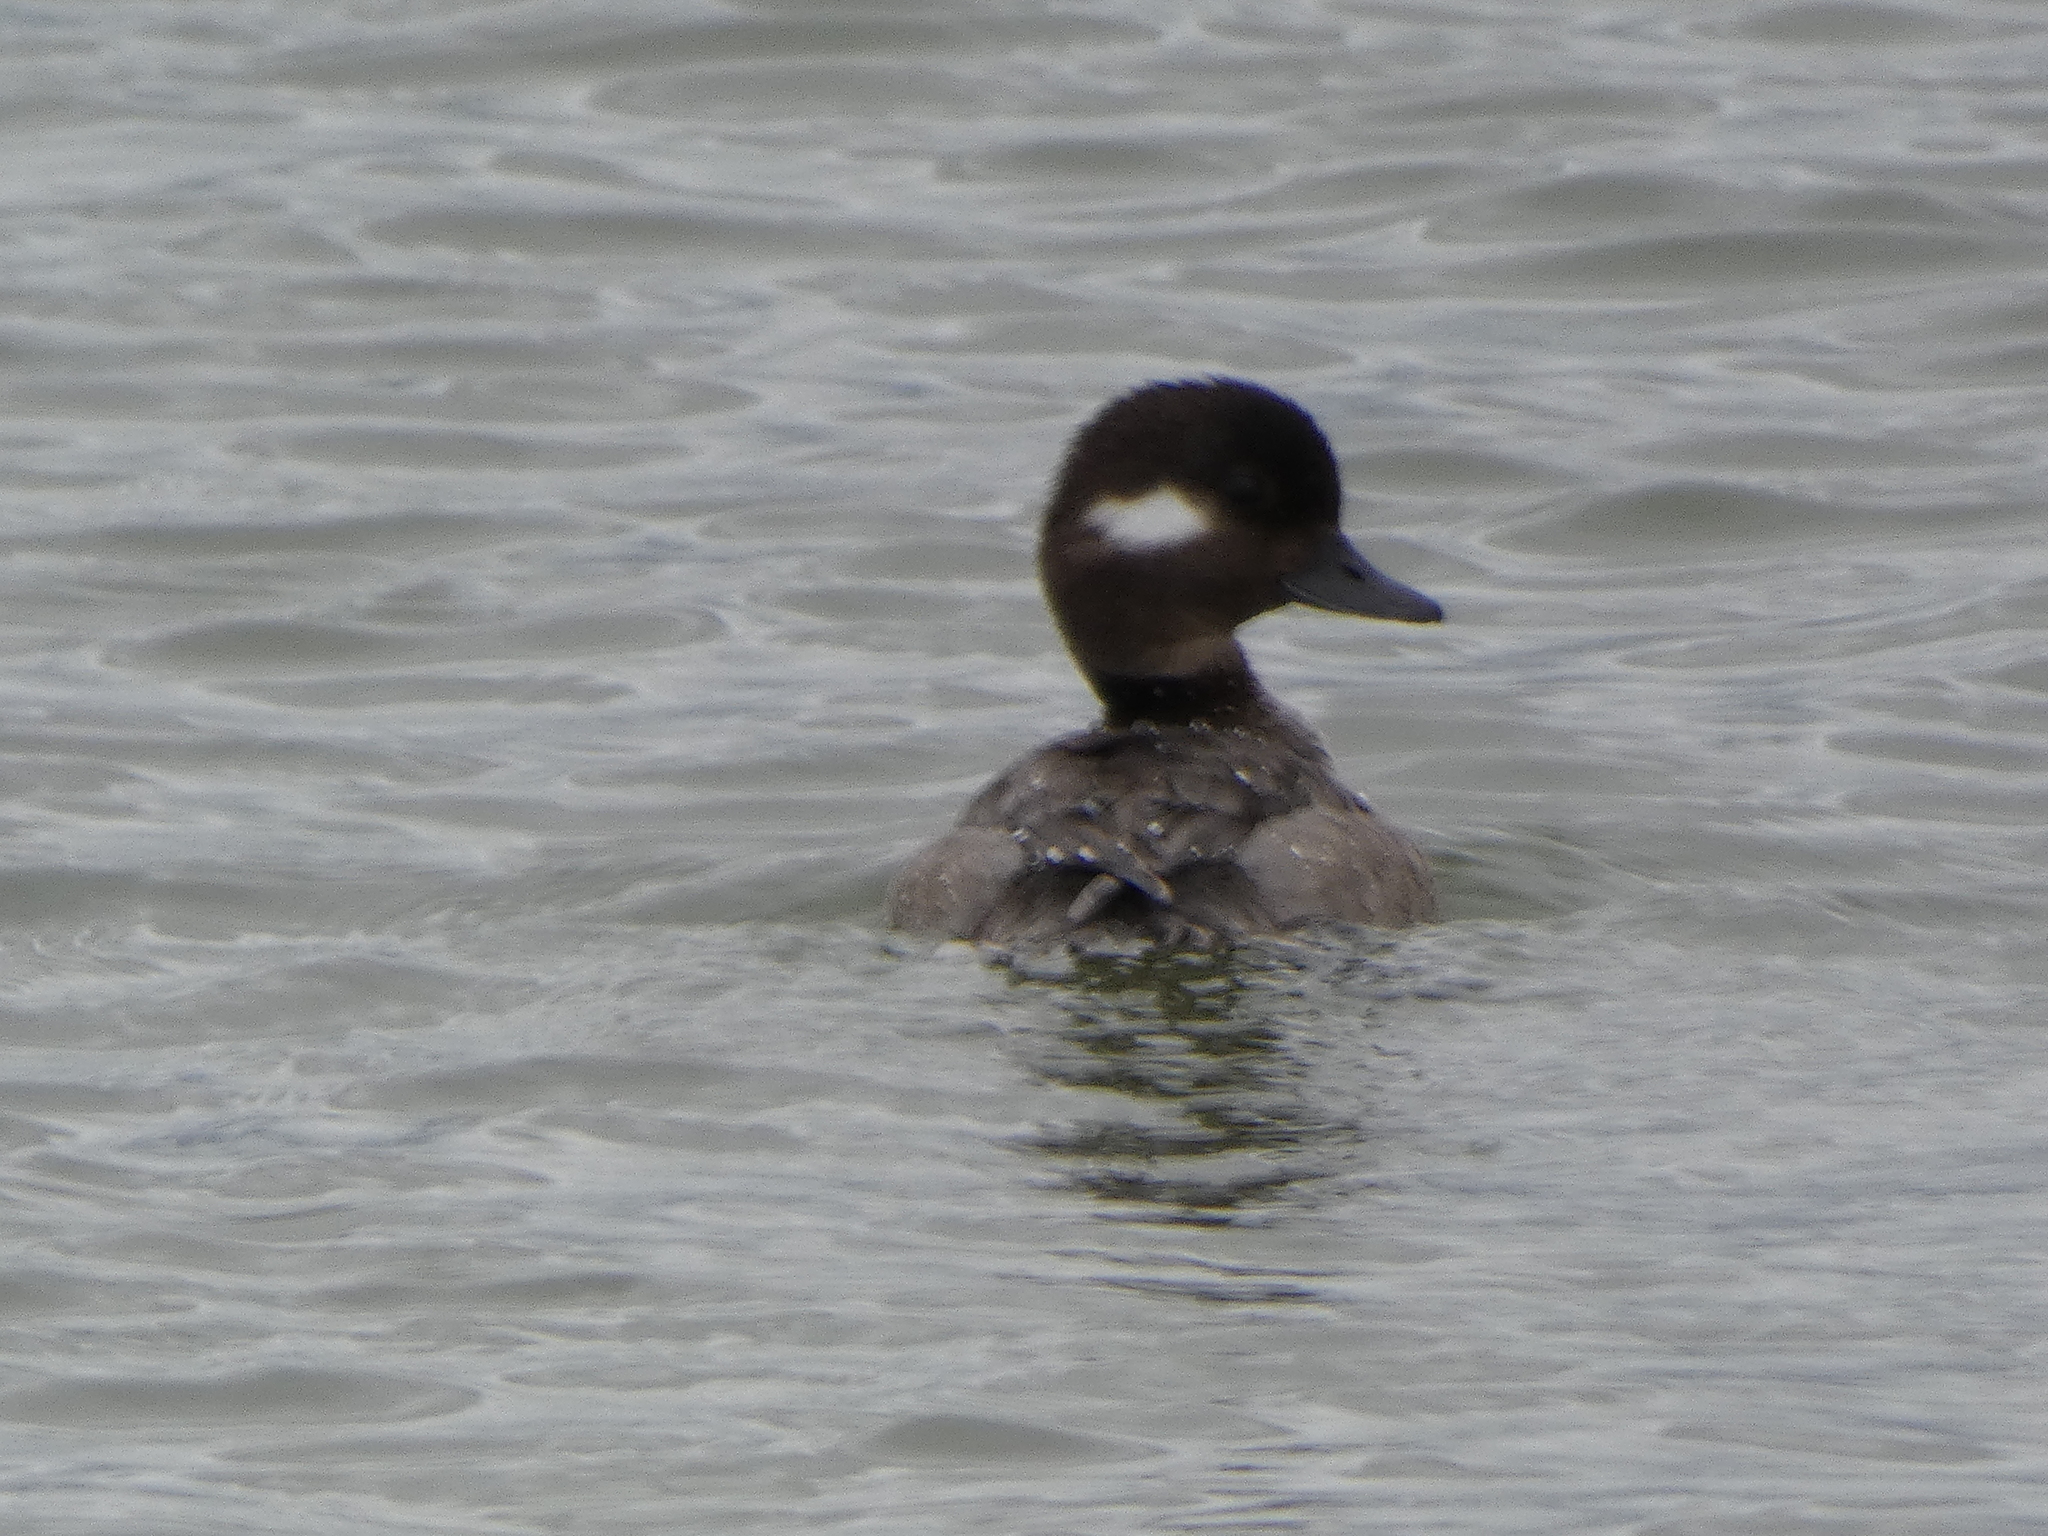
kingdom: Animalia
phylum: Chordata
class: Aves
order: Anseriformes
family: Anatidae
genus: Bucephala
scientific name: Bucephala albeola
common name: Bufflehead
